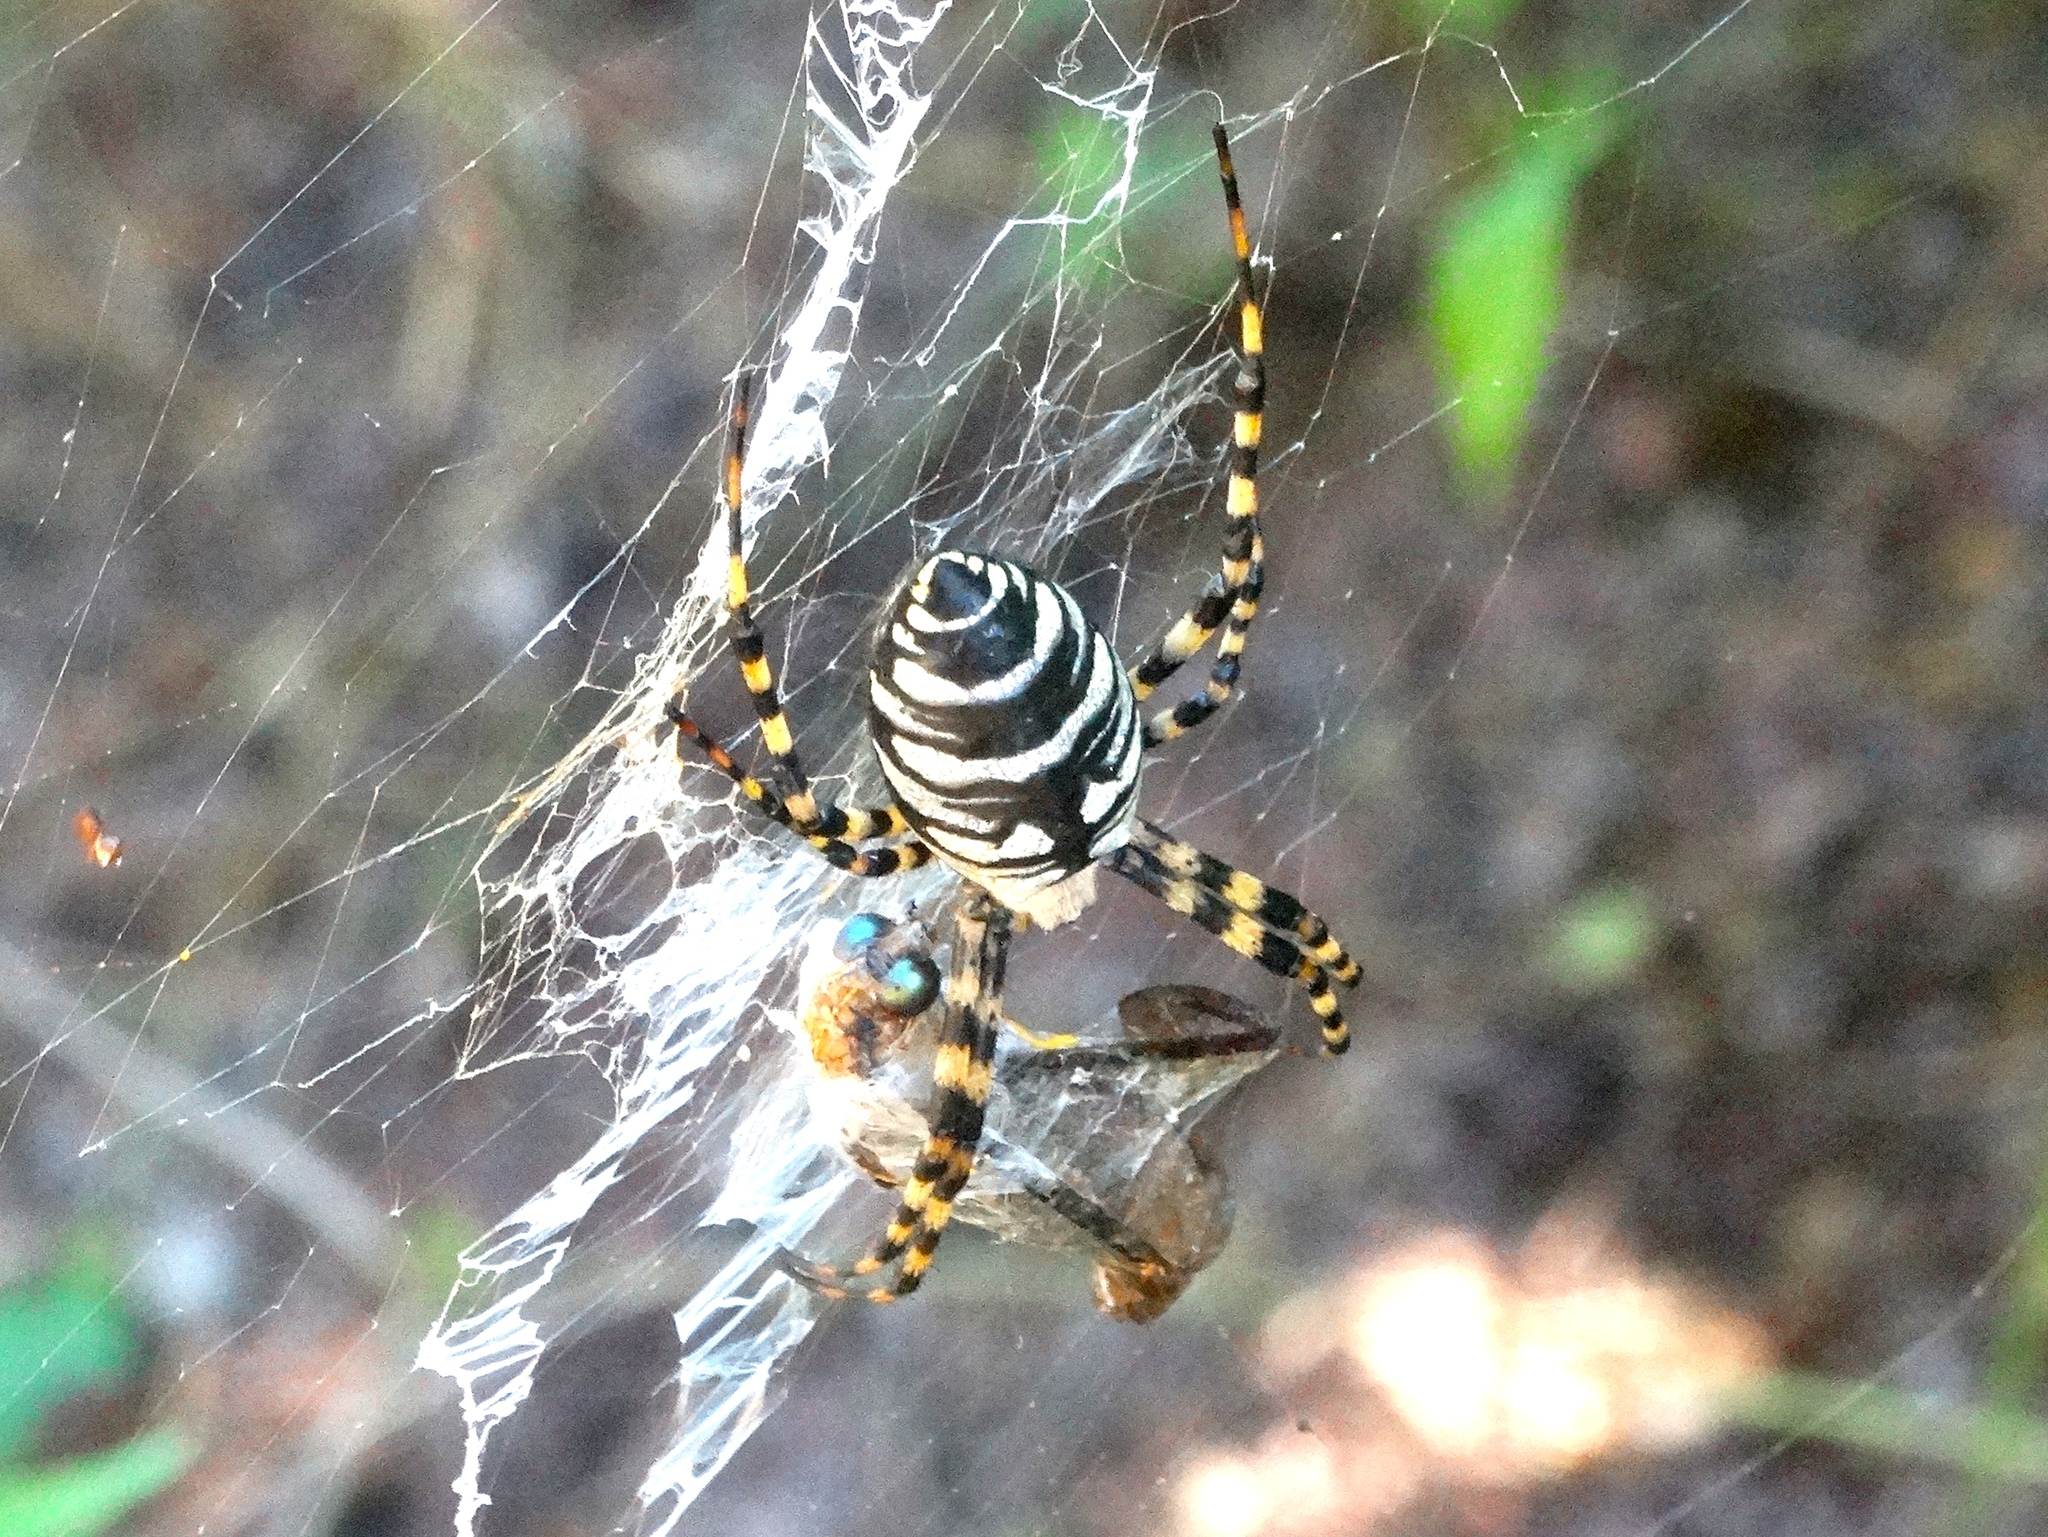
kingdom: Animalia
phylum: Arthropoda
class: Arachnida
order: Araneae
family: Araneidae
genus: Argiope
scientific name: Argiope aurantia
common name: Orb weavers
